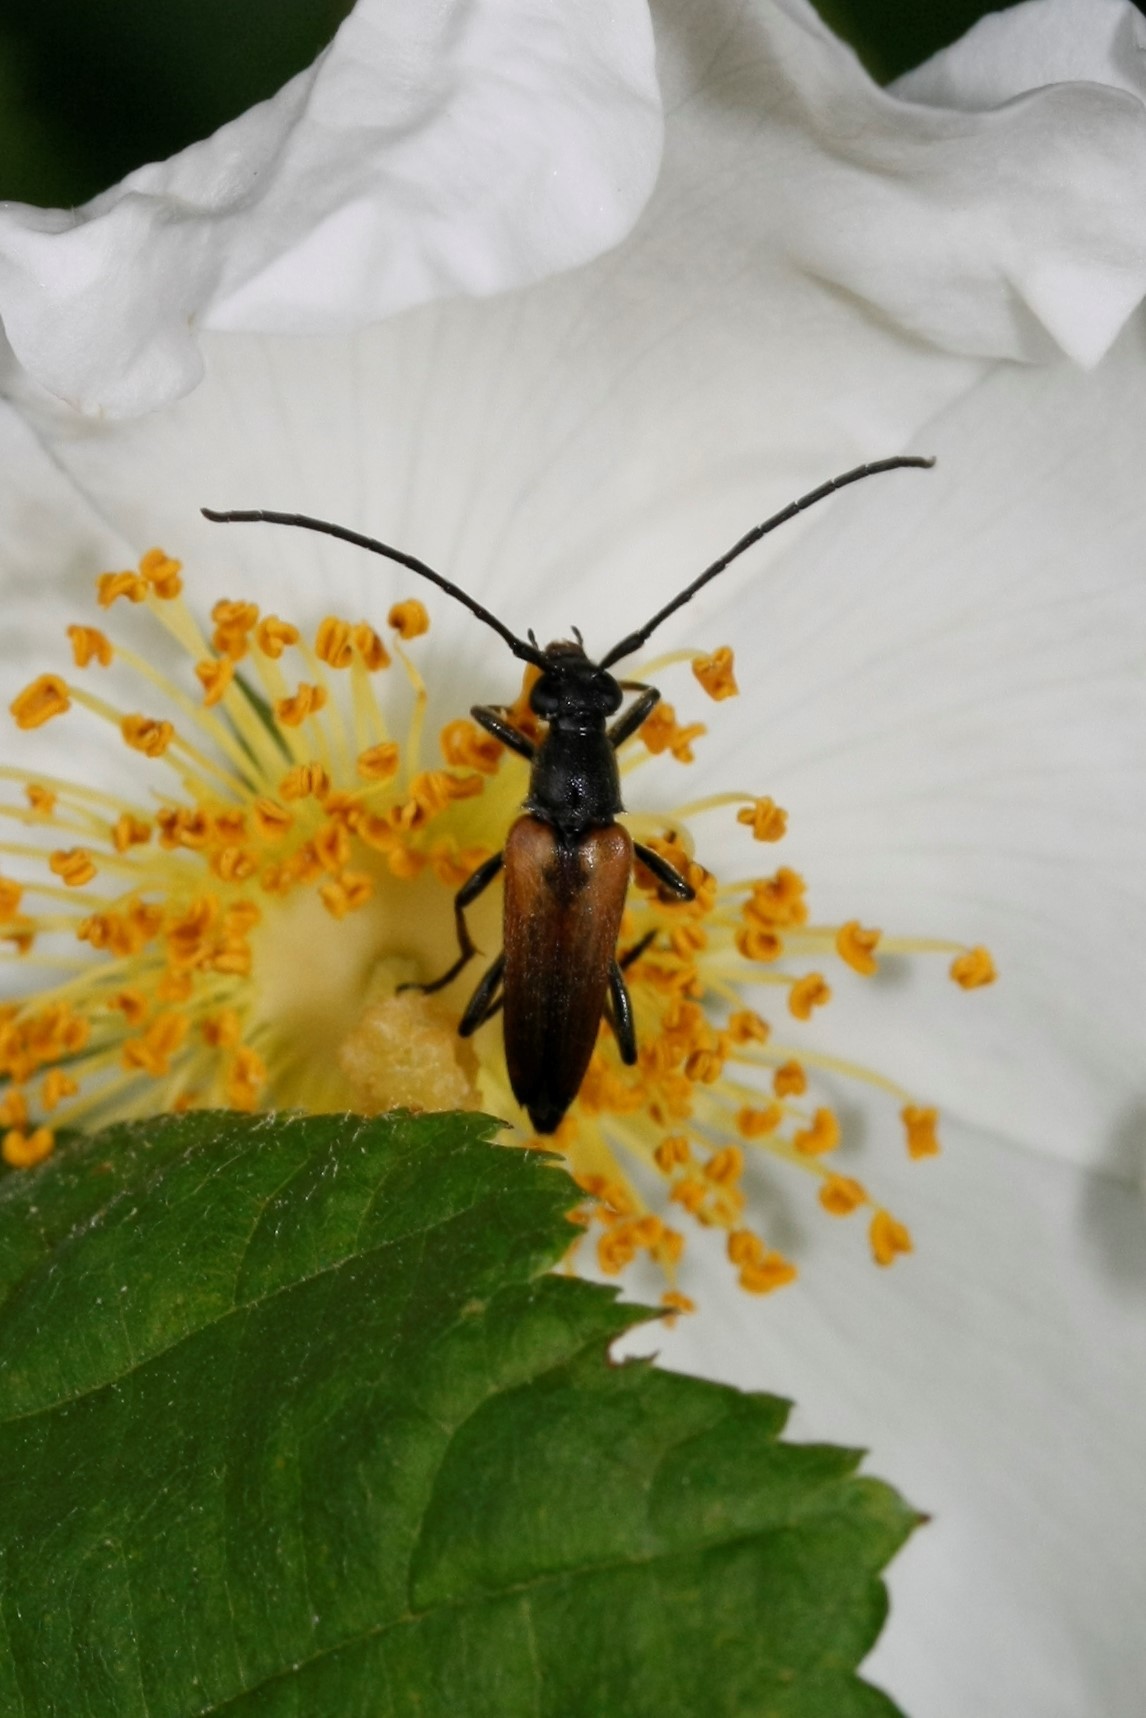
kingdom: Animalia
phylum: Arthropoda
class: Insecta
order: Coleoptera
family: Cerambycidae
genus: Stenurella
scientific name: Stenurella melanura
